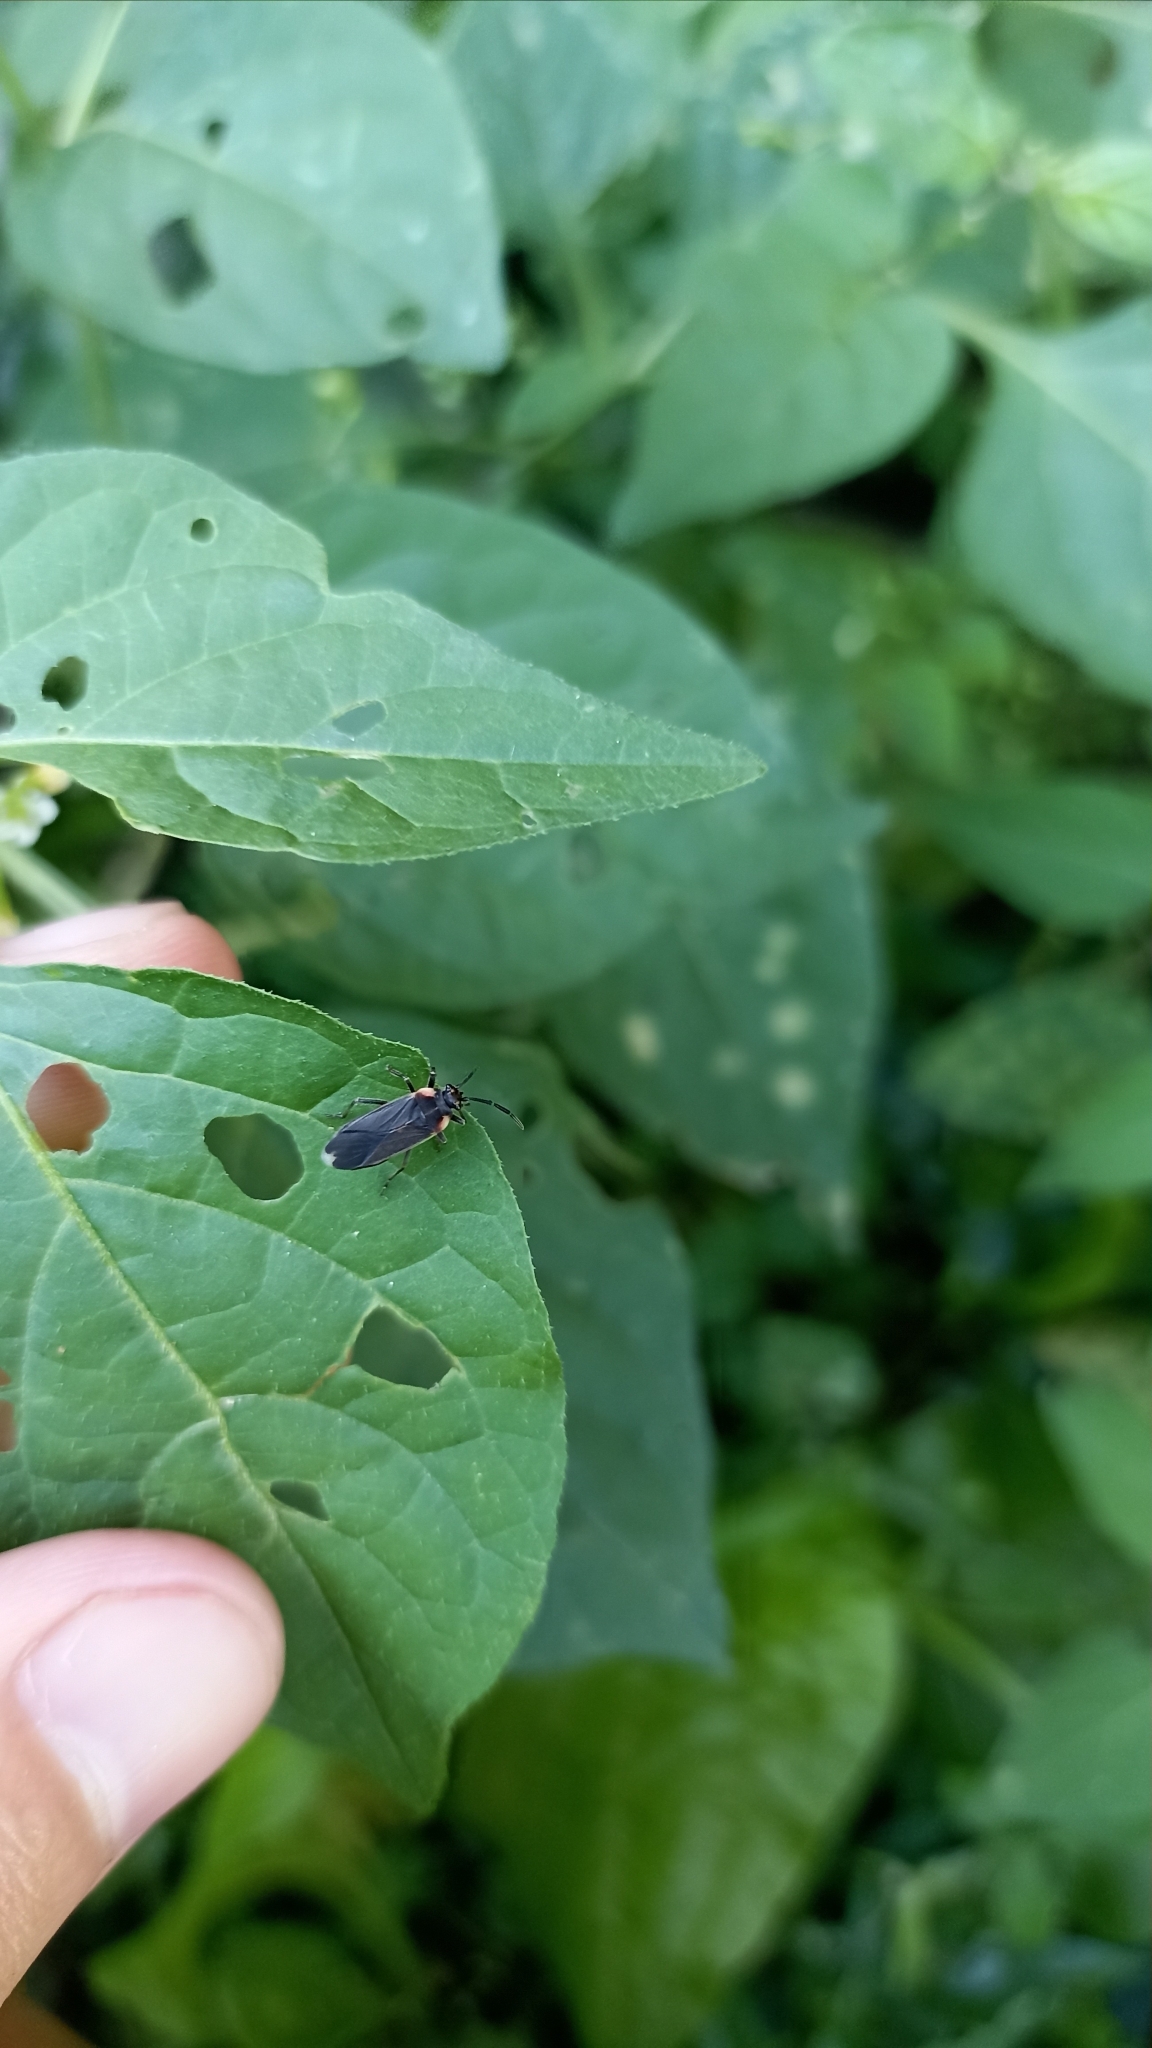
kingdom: Animalia
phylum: Arthropoda
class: Insecta
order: Hemiptera
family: Lygaeidae
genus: Acroleucus
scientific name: Acroleucus coxalis
